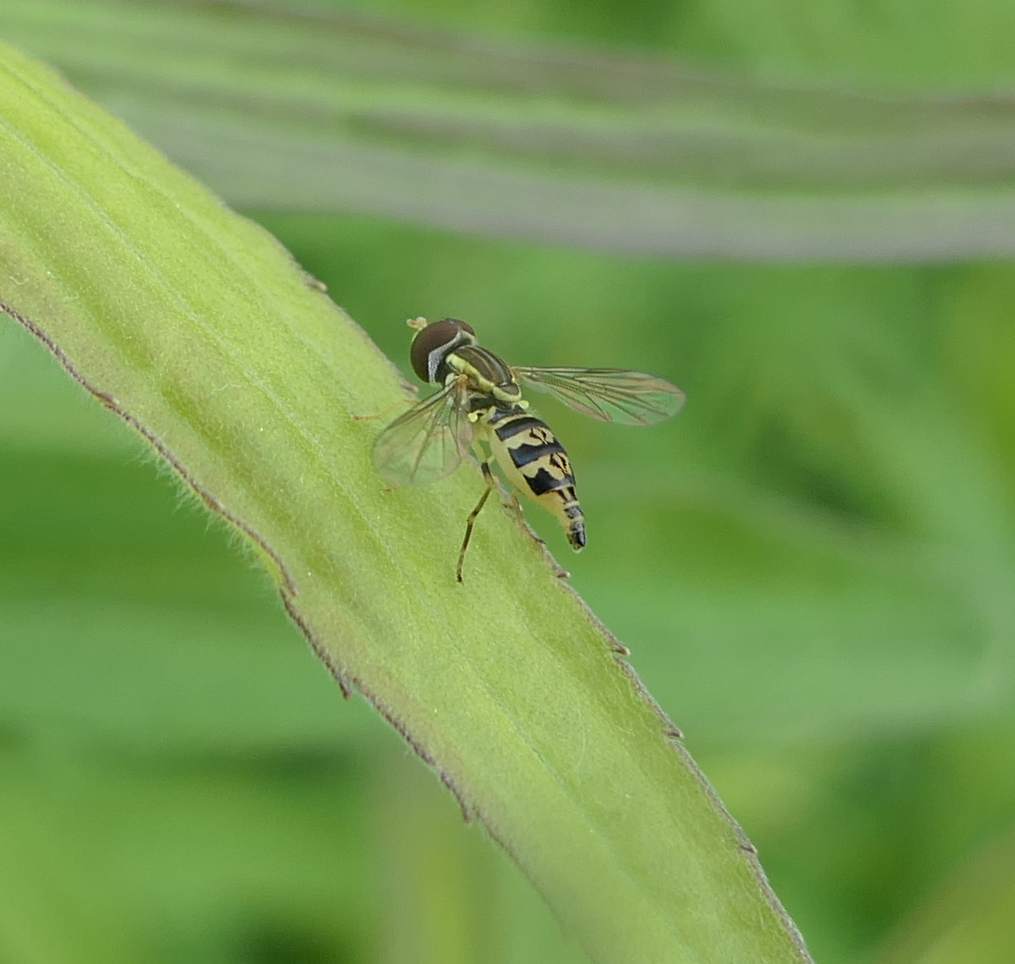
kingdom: Animalia
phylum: Arthropoda
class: Insecta
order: Diptera
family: Syrphidae
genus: Toxomerus
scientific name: Toxomerus geminatus
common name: Eastern calligrapher
